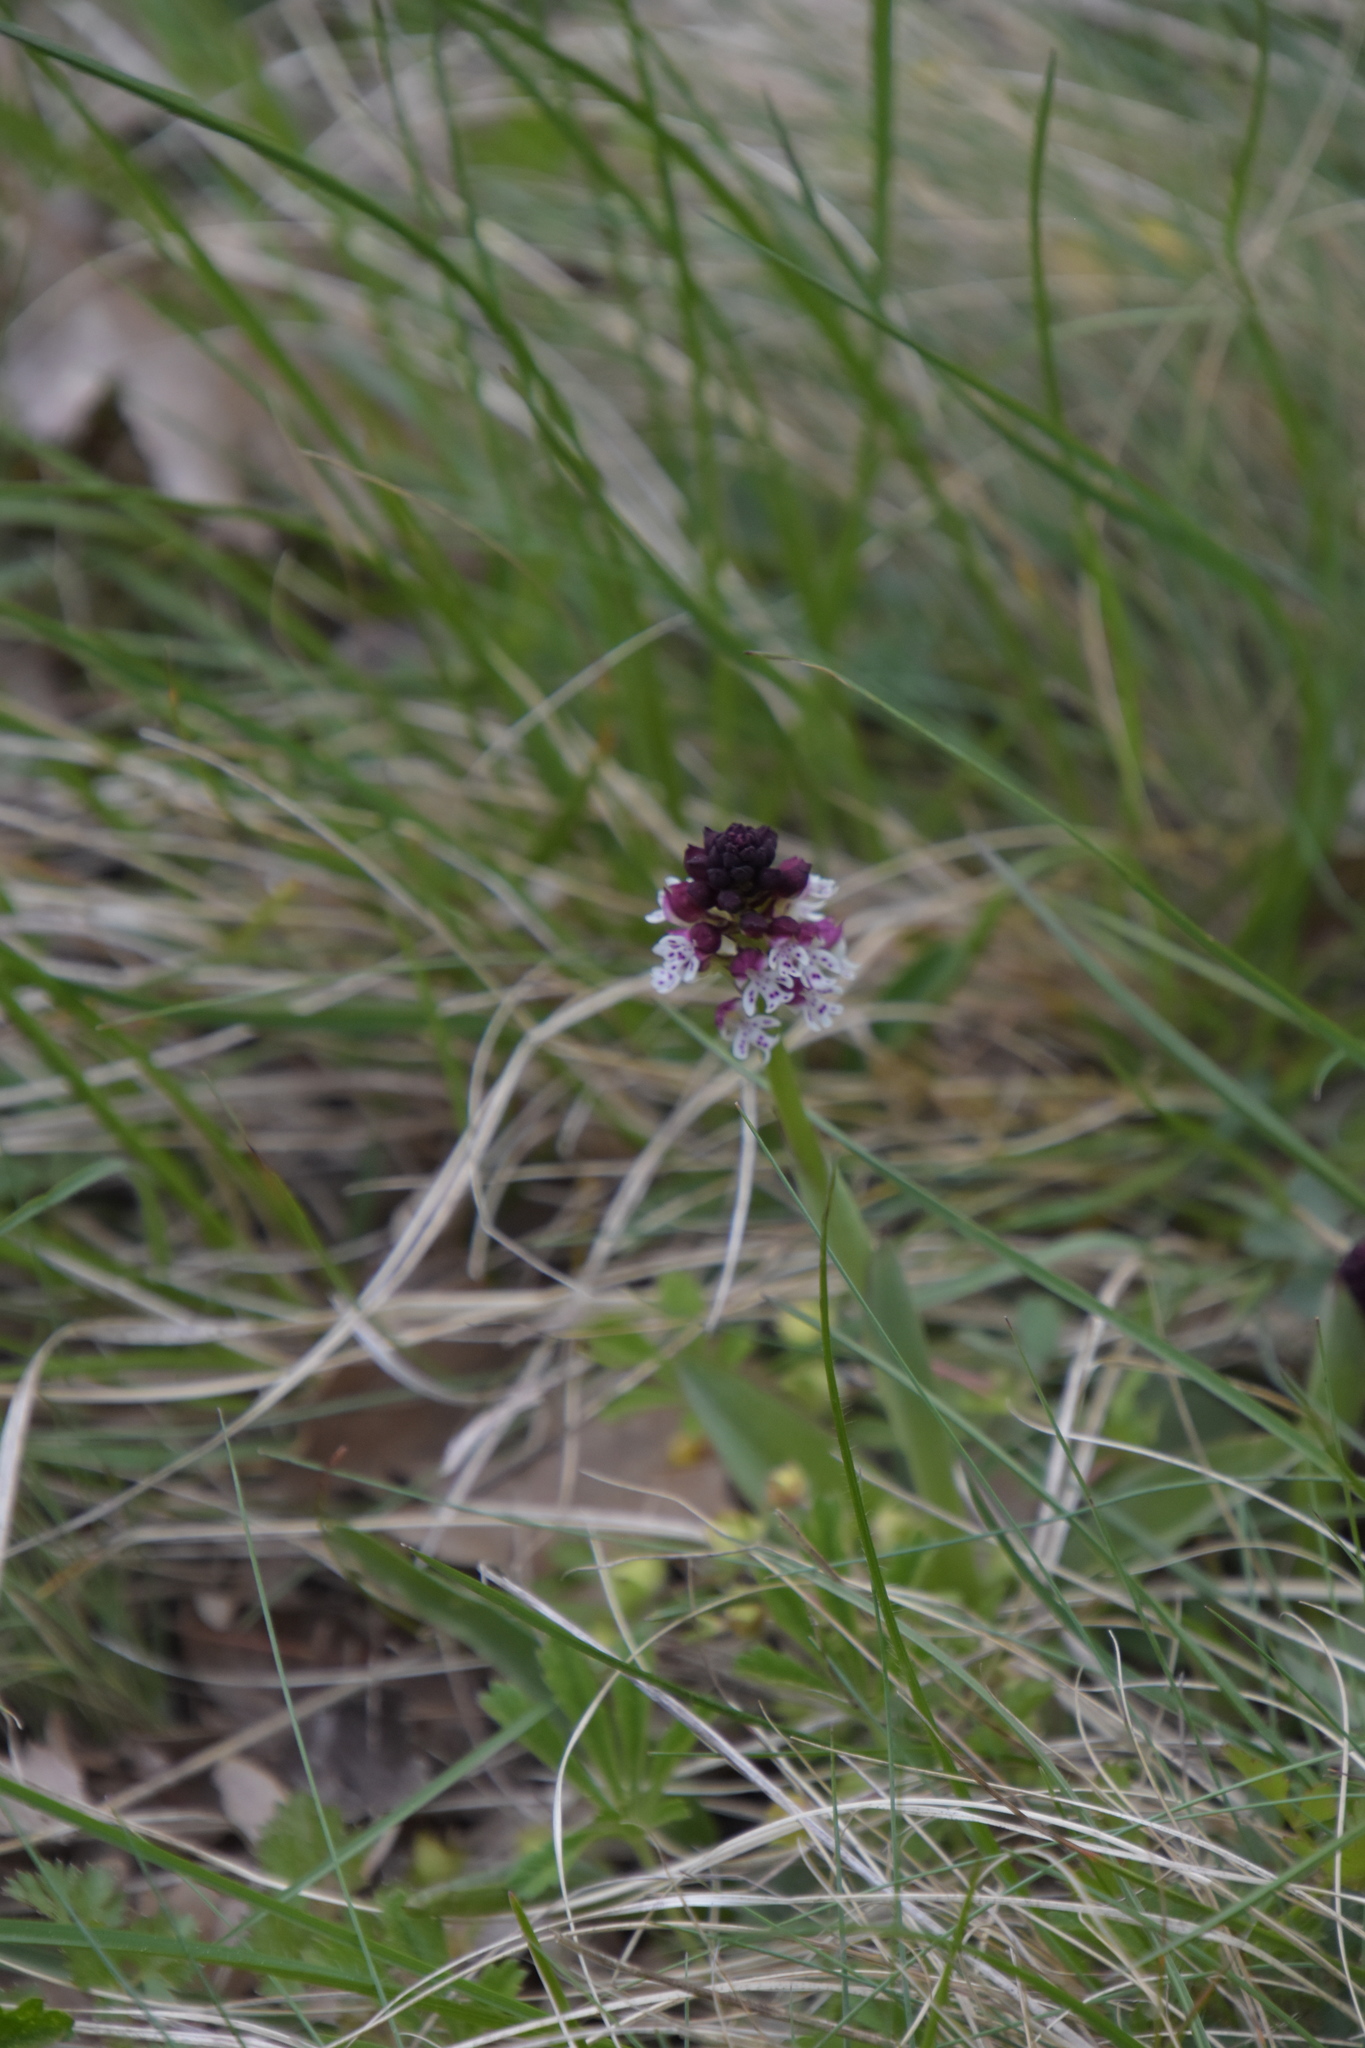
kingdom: Plantae
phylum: Tracheophyta
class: Liliopsida
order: Asparagales
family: Orchidaceae
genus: Neotinea
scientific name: Neotinea ustulata
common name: Burnt orchid
